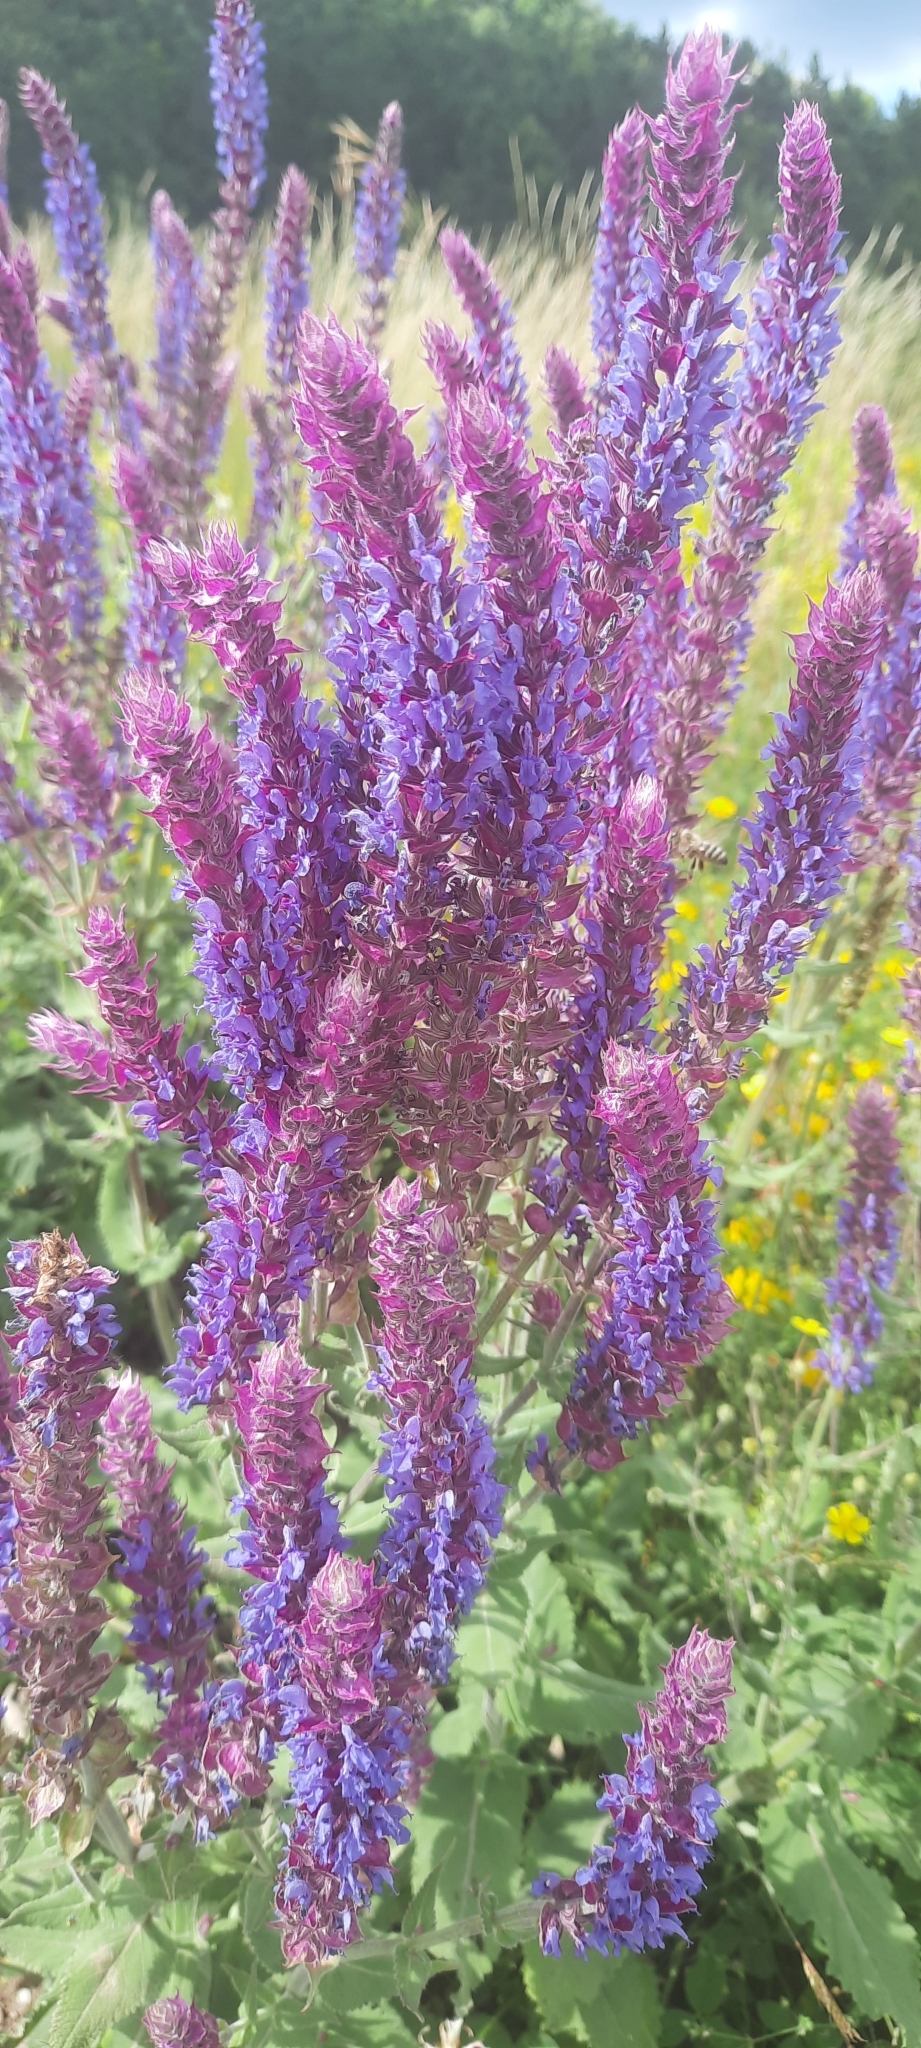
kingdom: Plantae
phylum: Tracheophyta
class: Magnoliopsida
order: Lamiales
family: Lamiaceae
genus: Salvia
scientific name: Salvia nemorosa
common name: Balkan clary
